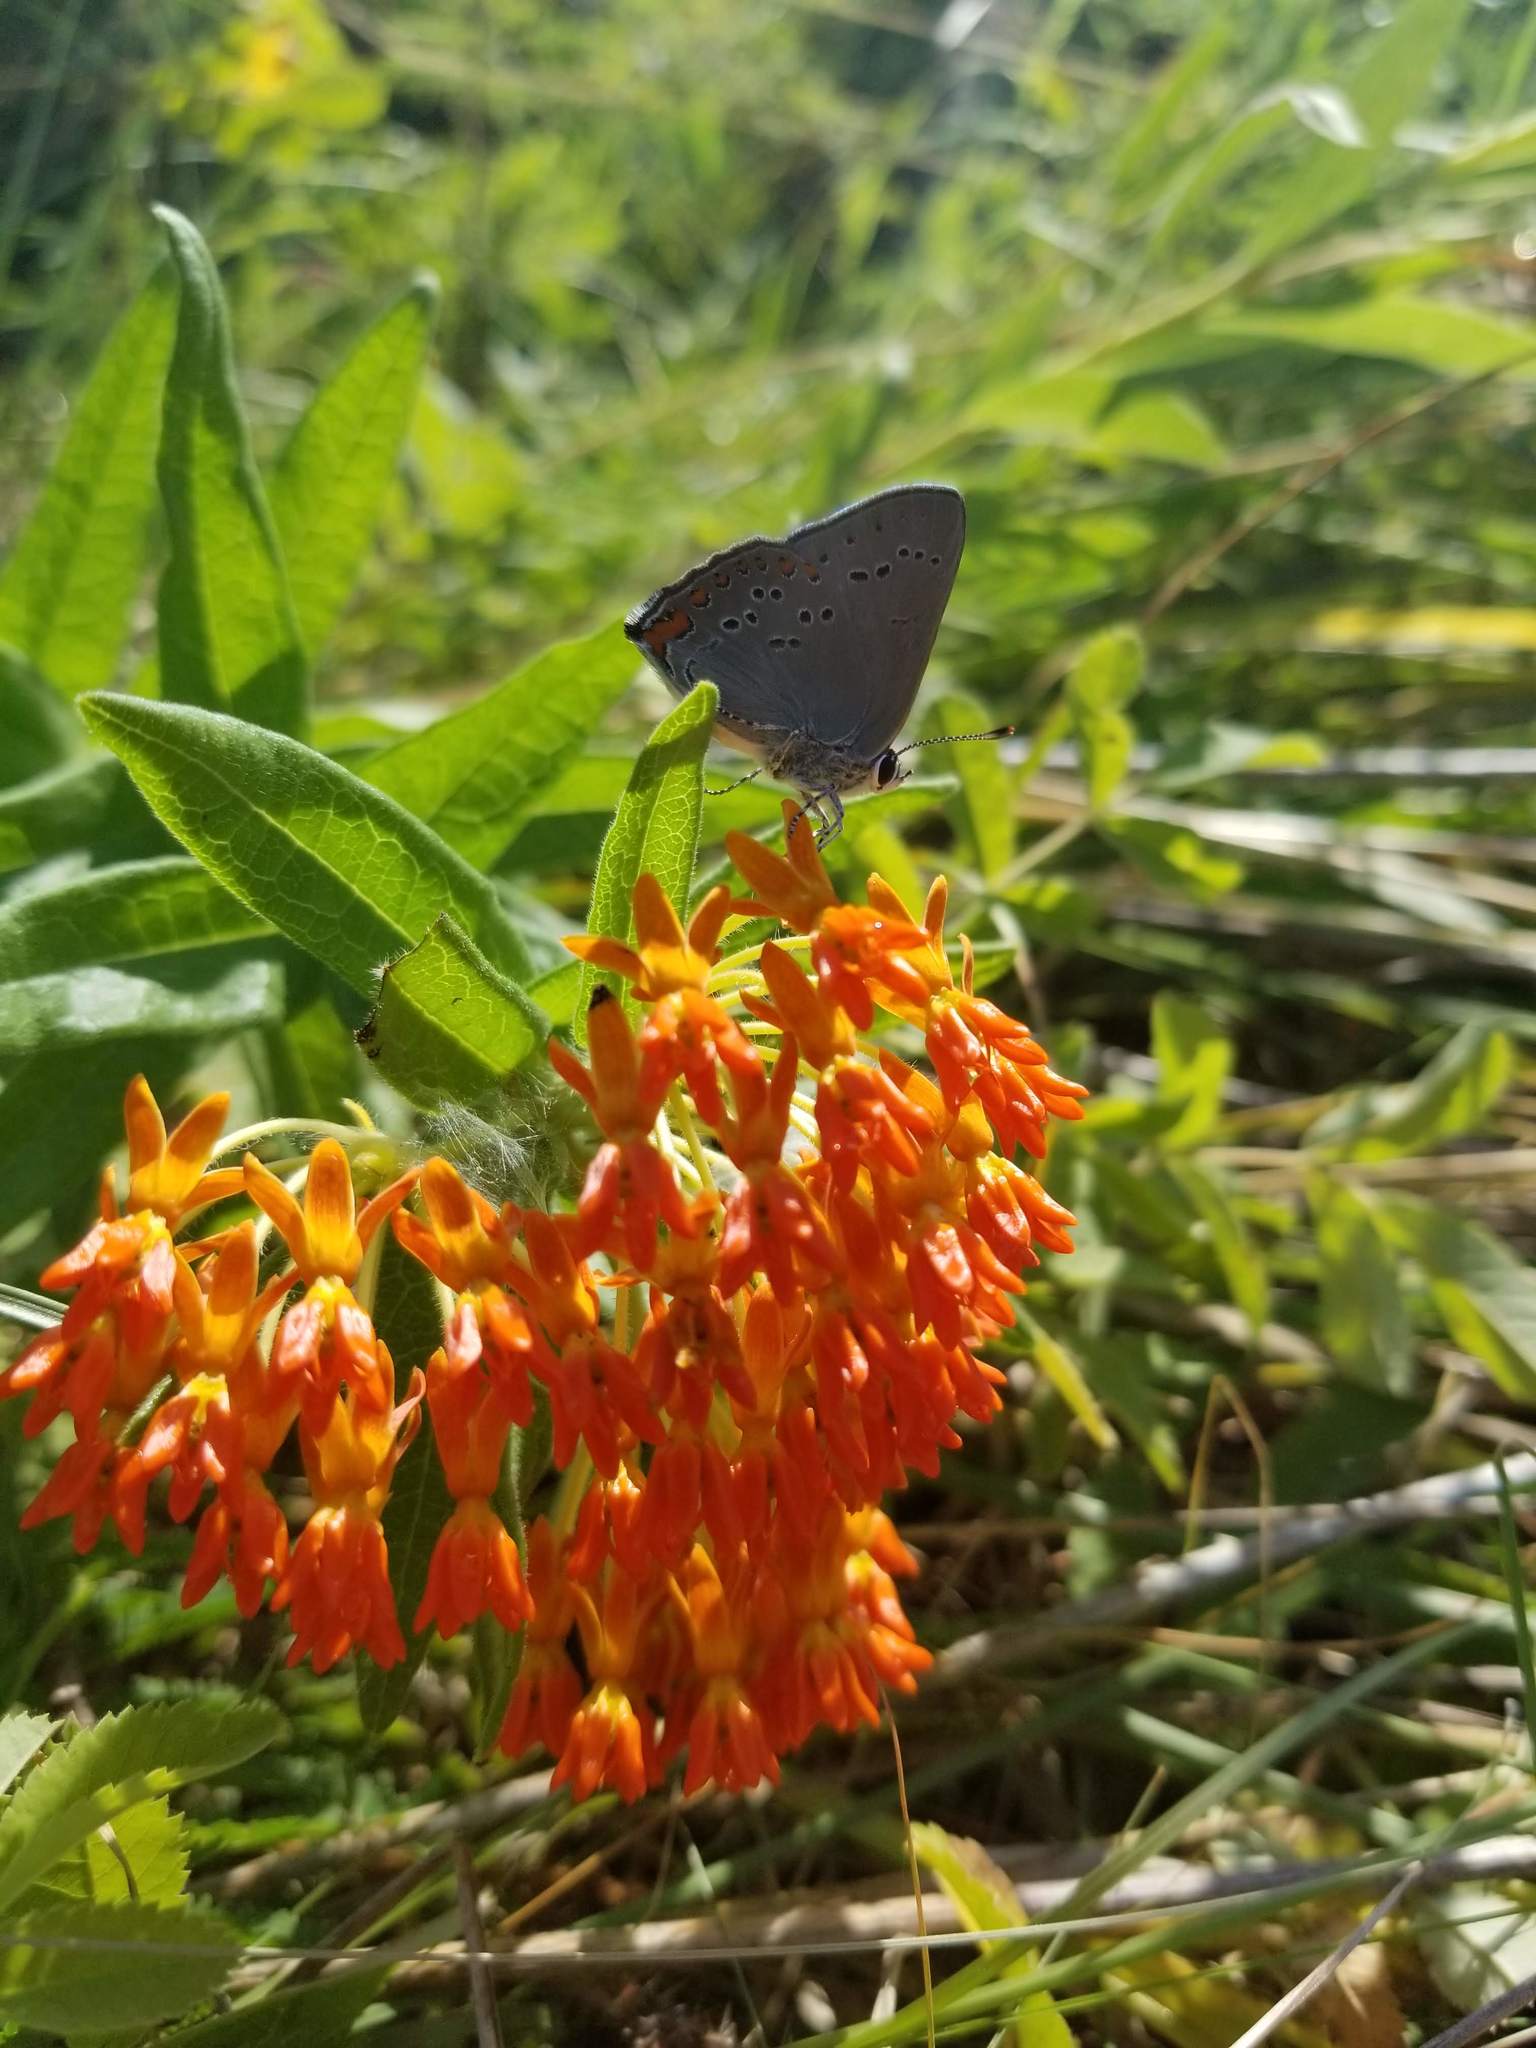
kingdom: Animalia
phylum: Arthropoda
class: Insecta
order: Lepidoptera
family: Lycaenidae
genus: Harkenclenus
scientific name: Harkenclenus titus
